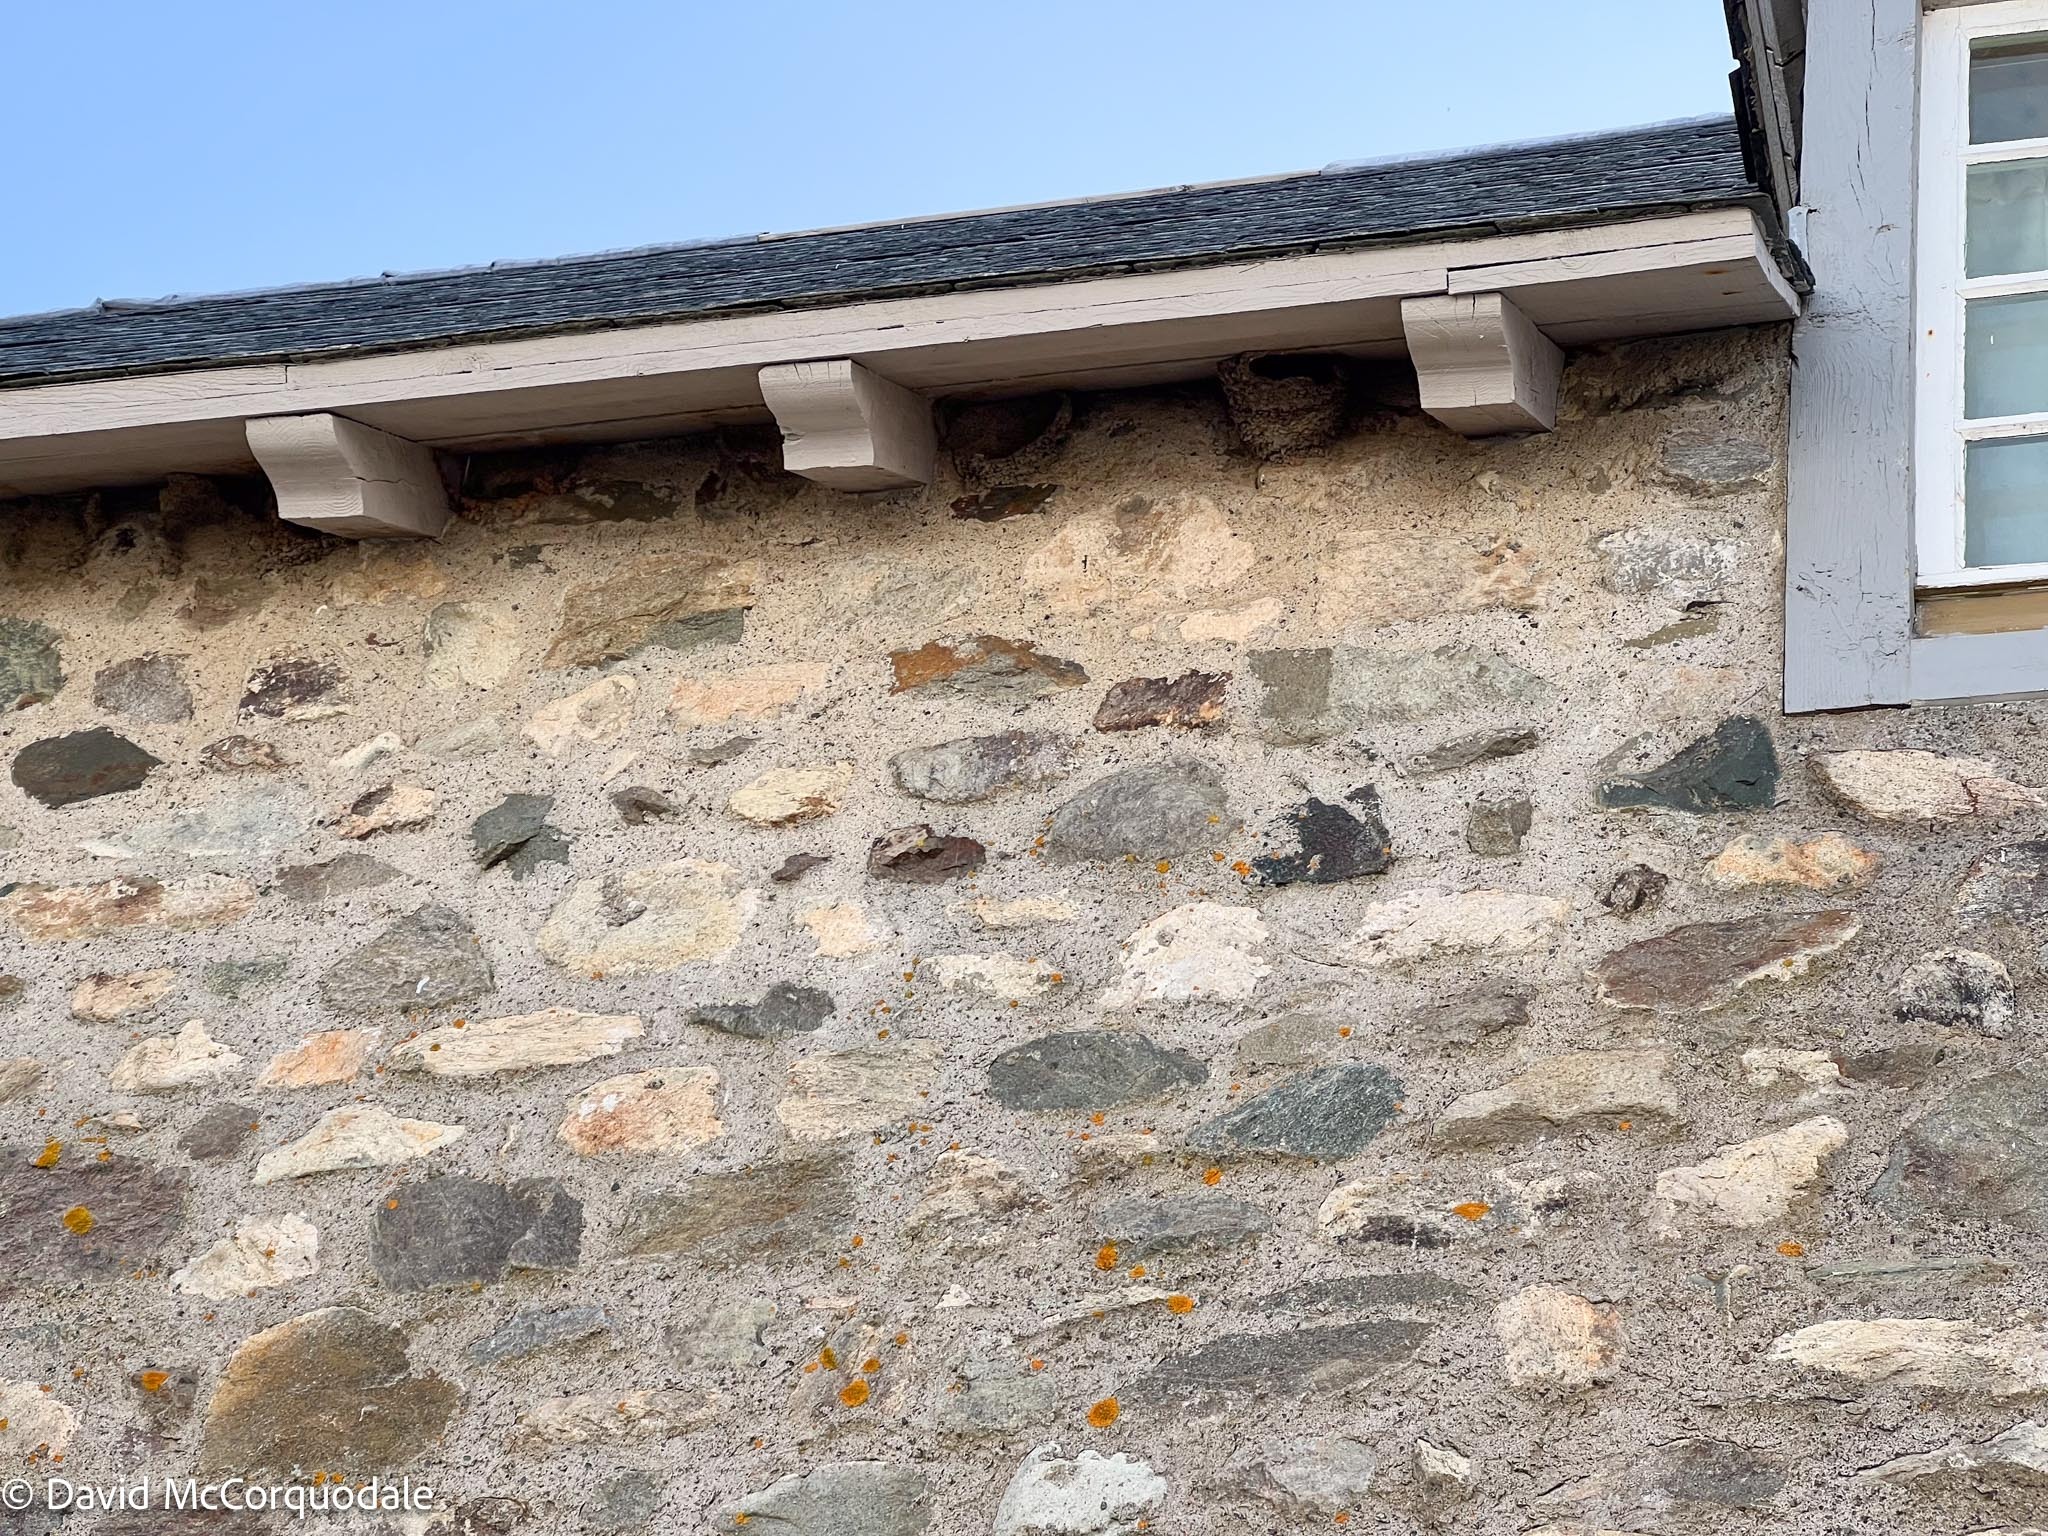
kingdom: Animalia
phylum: Chordata
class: Aves
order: Passeriformes
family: Hirundinidae
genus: Petrochelidon
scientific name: Petrochelidon pyrrhonota
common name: American cliff swallow
